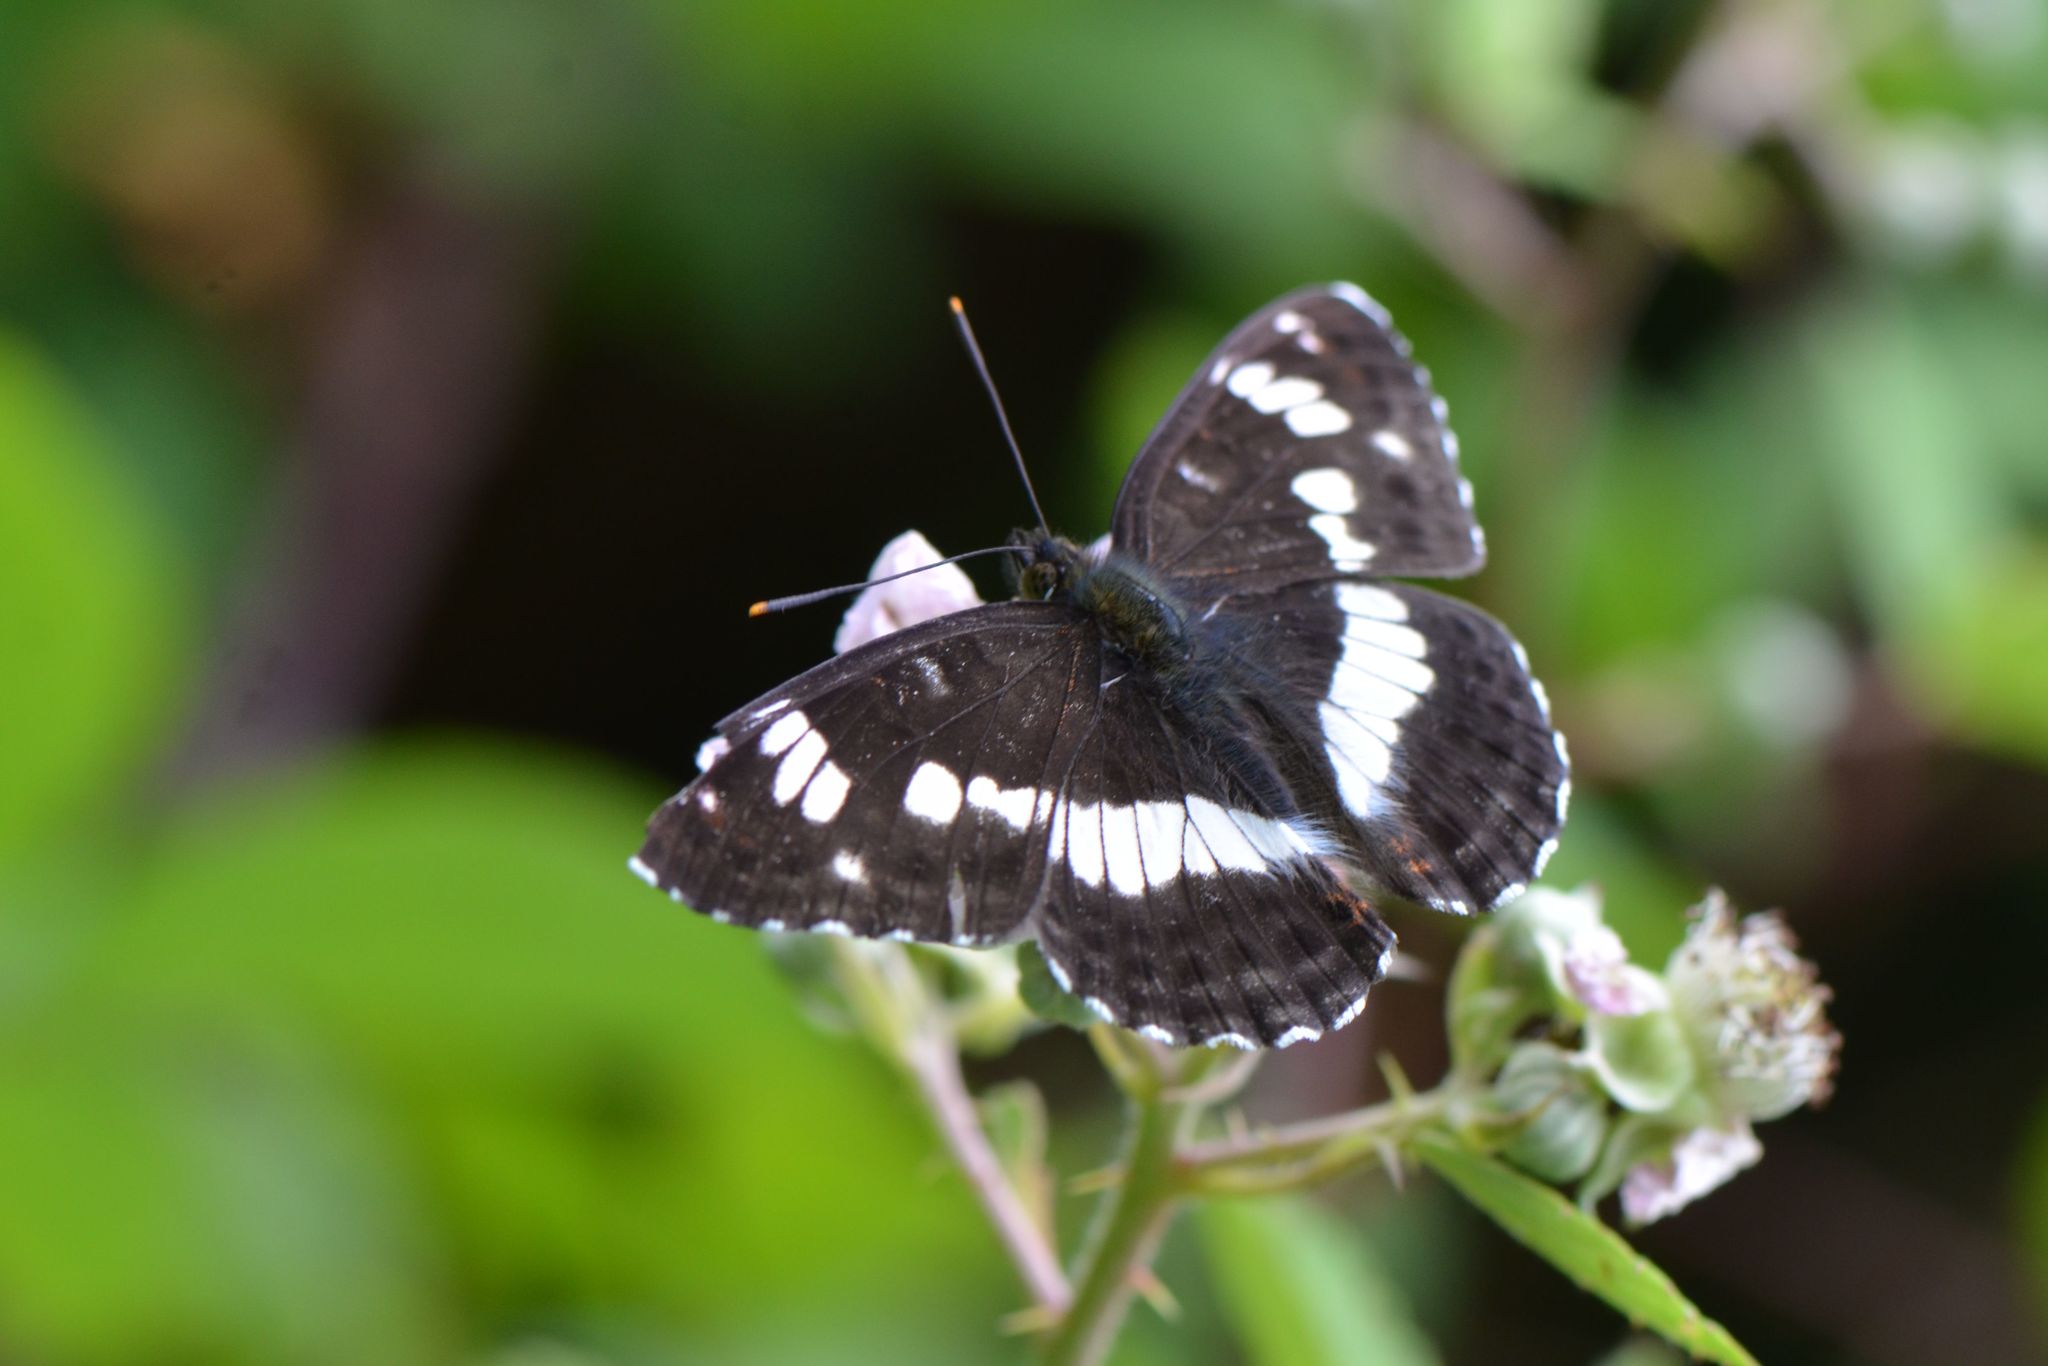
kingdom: Animalia
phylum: Arthropoda
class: Insecta
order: Lepidoptera
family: Nymphalidae
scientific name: Nymphalidae
